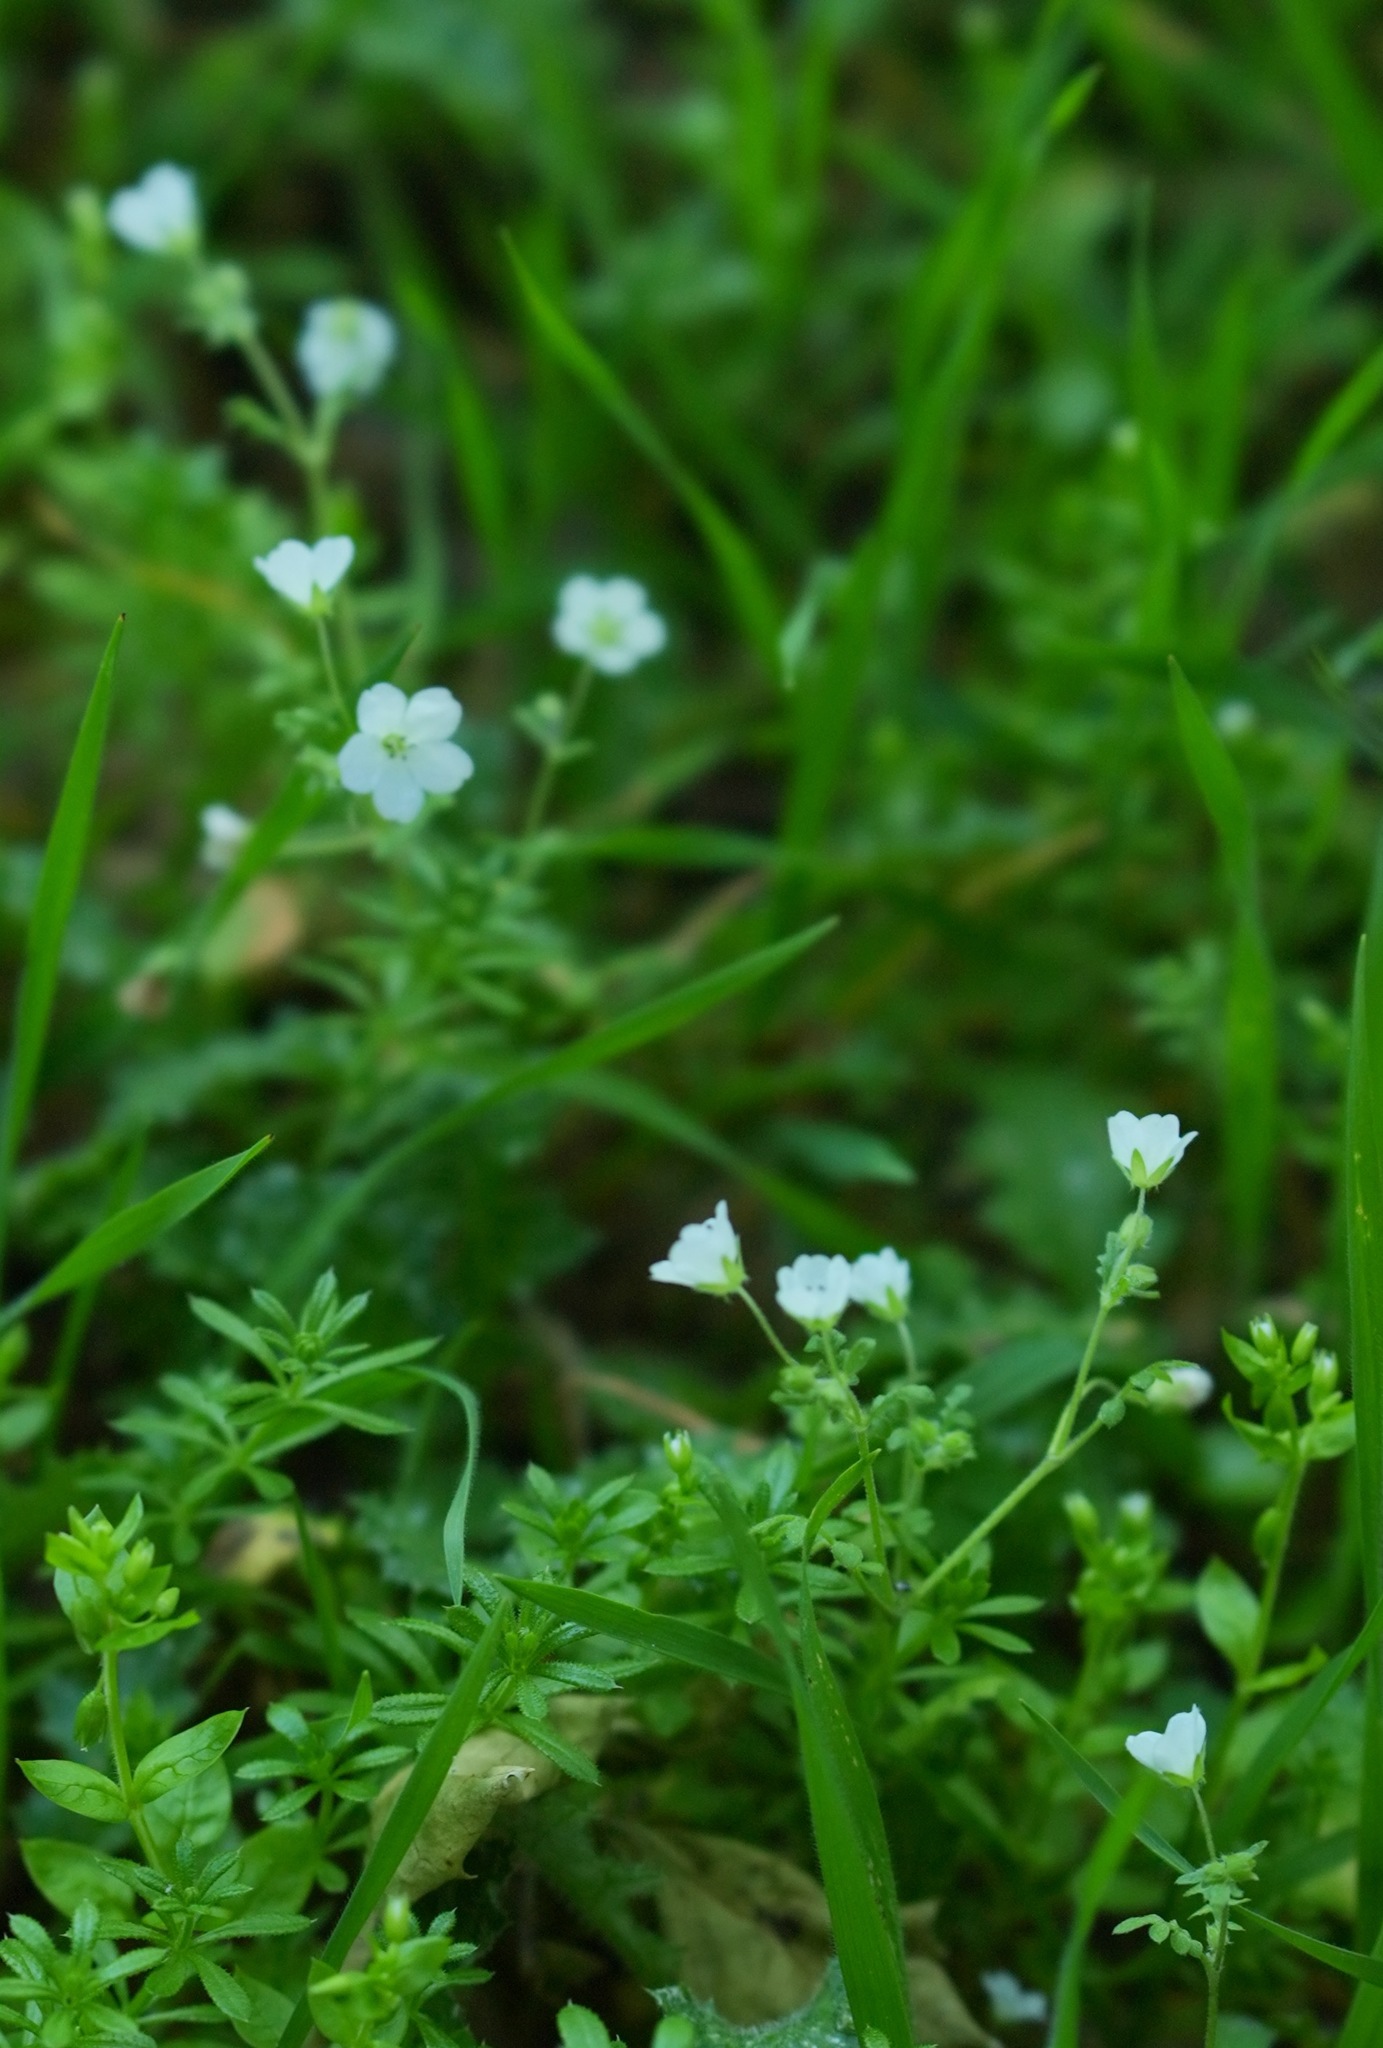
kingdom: Plantae
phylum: Tracheophyta
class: Magnoliopsida
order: Boraginales
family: Hydrophyllaceae
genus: Nemophila
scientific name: Nemophila heterophylla
